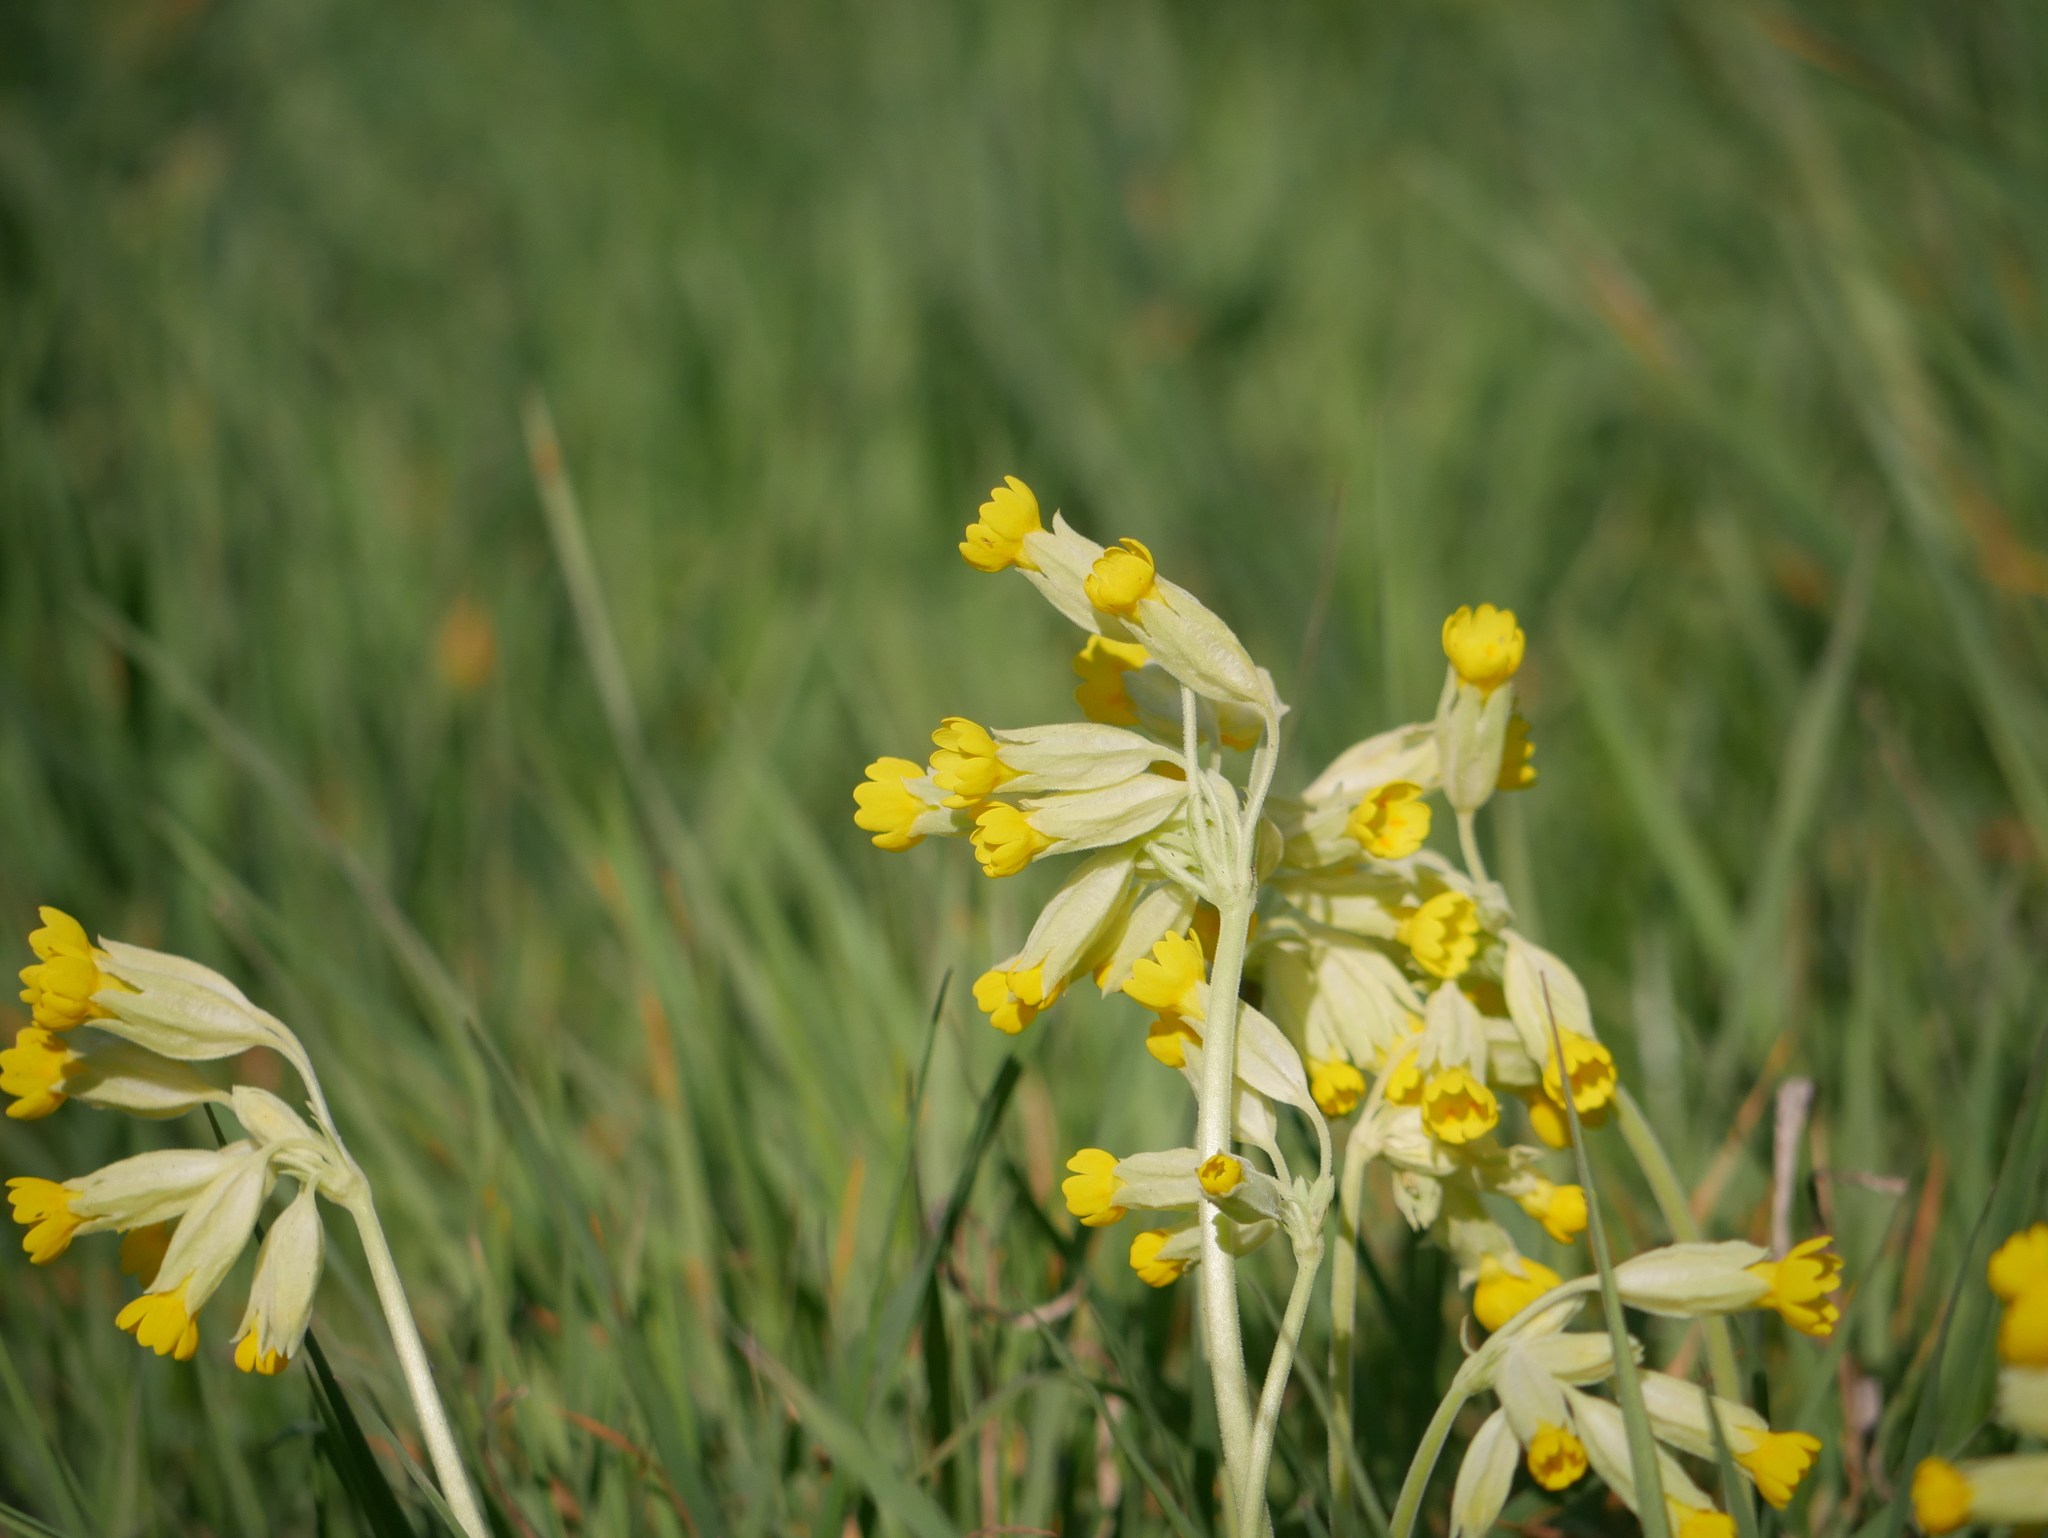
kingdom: Plantae
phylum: Tracheophyta
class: Magnoliopsida
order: Ericales
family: Primulaceae
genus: Primula
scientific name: Primula veris
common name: Cowslip
